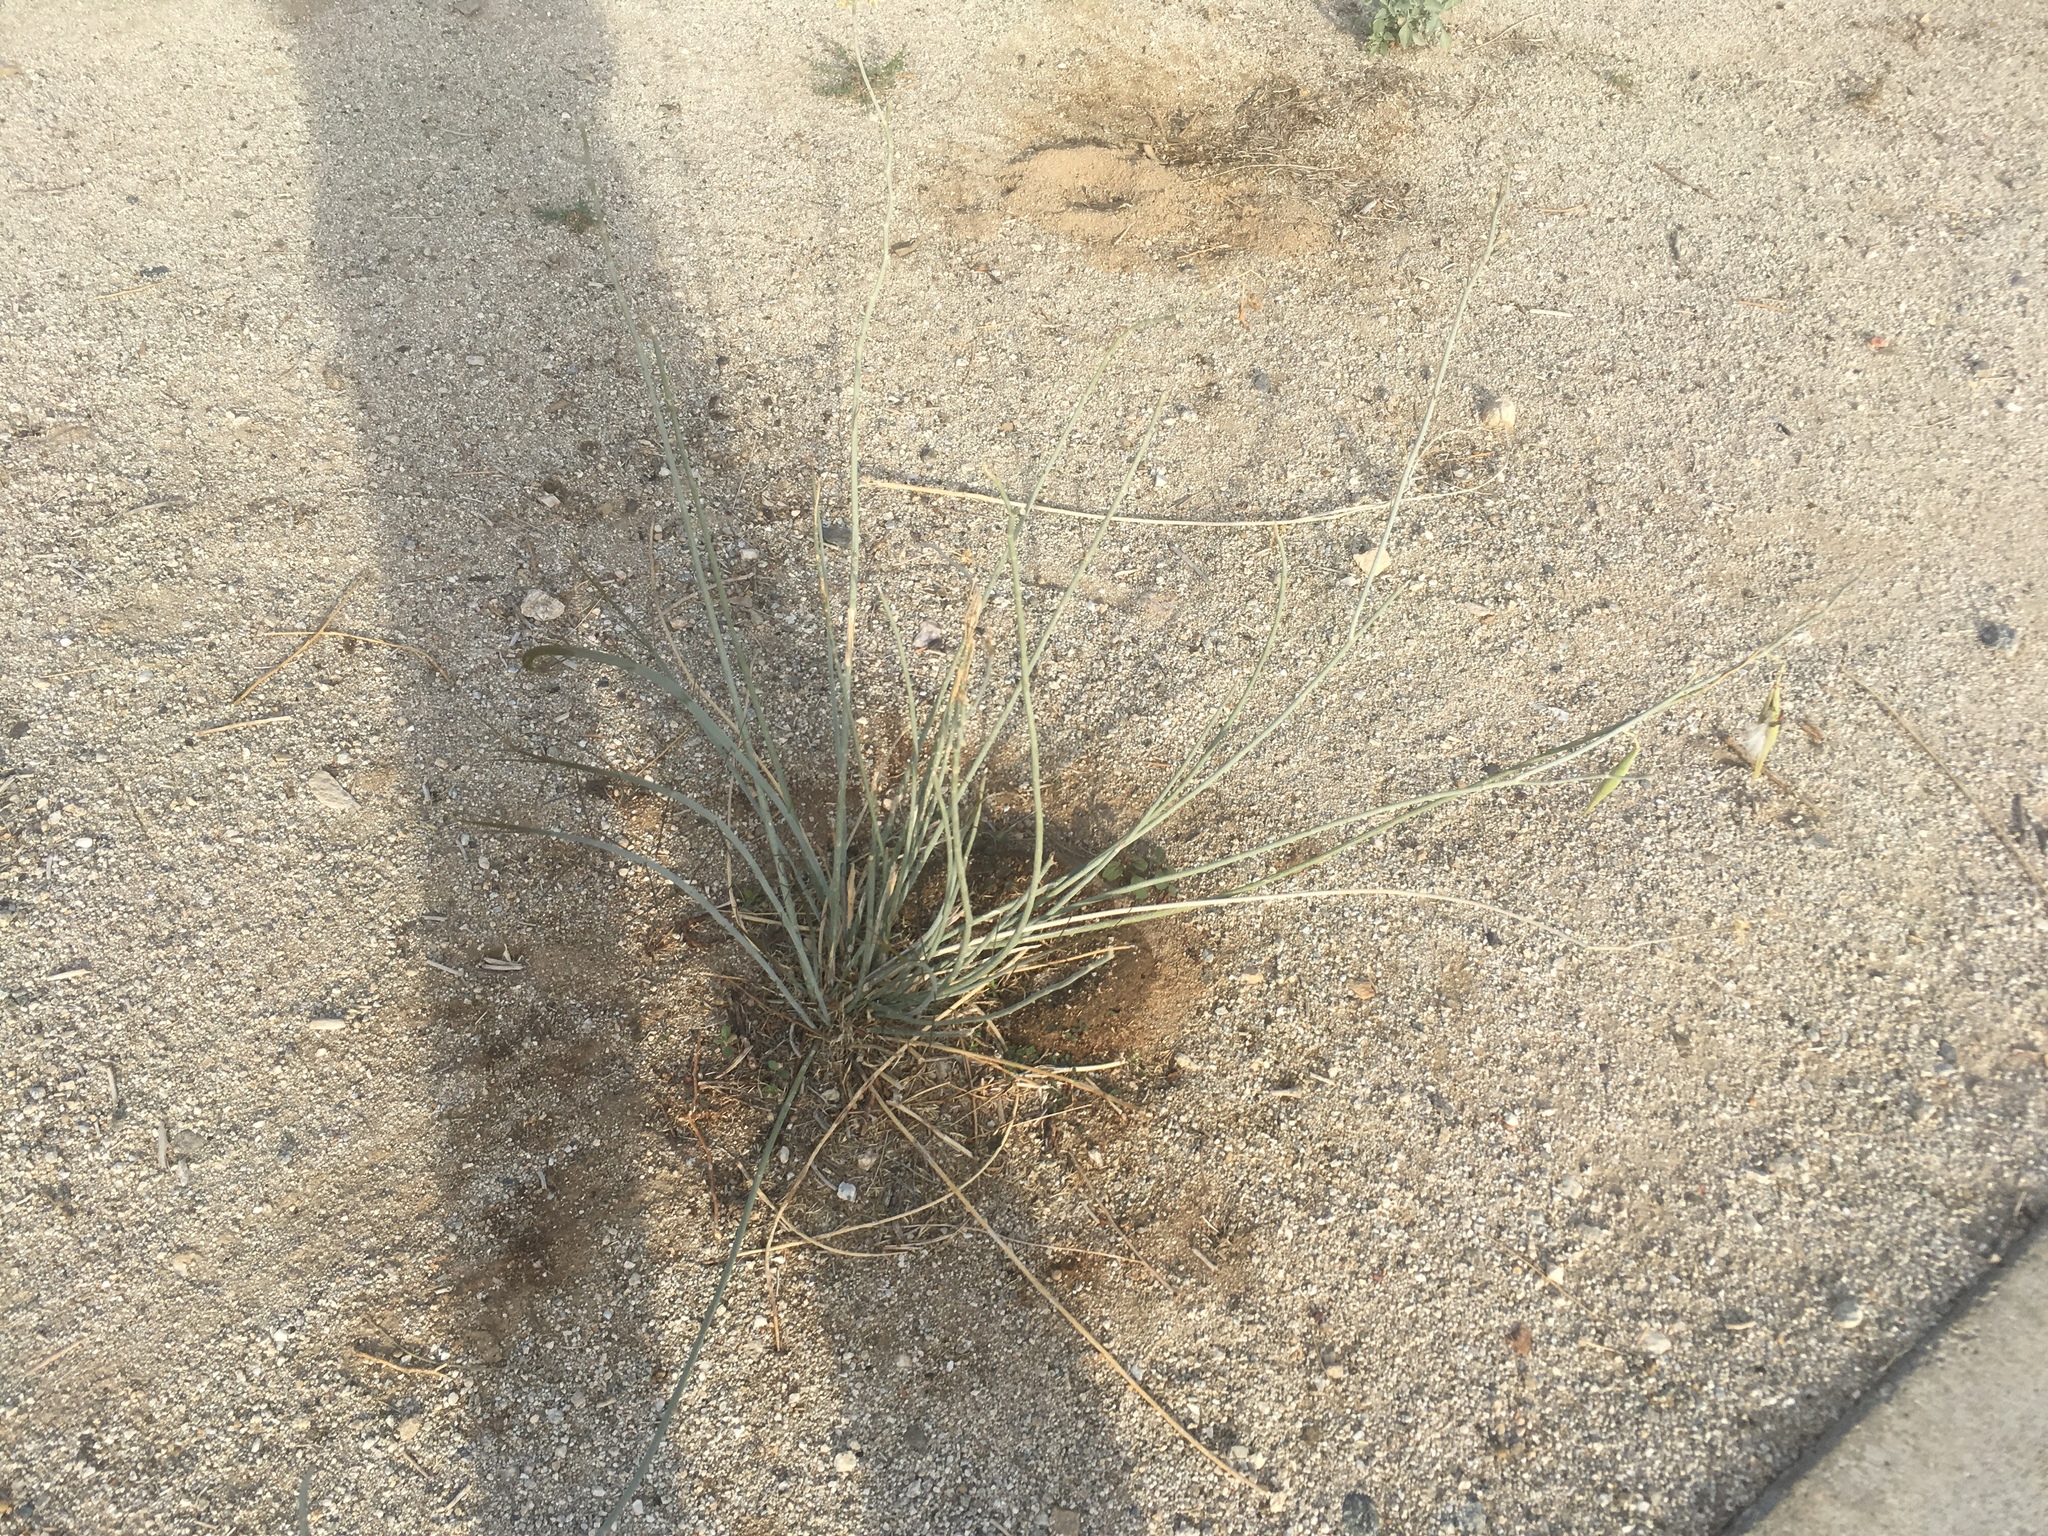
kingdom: Plantae
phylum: Tracheophyta
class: Magnoliopsida
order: Gentianales
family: Apocynaceae
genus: Asclepias
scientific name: Asclepias subulata
